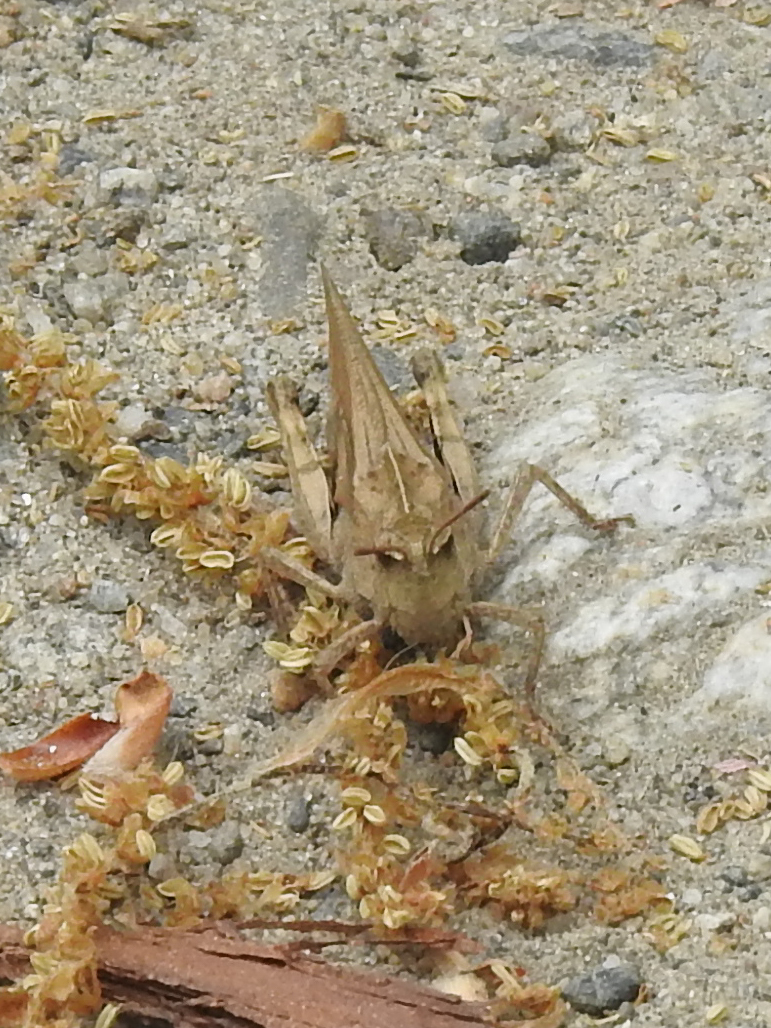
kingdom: Animalia
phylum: Arthropoda
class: Insecta
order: Orthoptera
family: Acrididae
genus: Chortophaga
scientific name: Chortophaga viridifasciata
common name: Green-striped grasshopper
